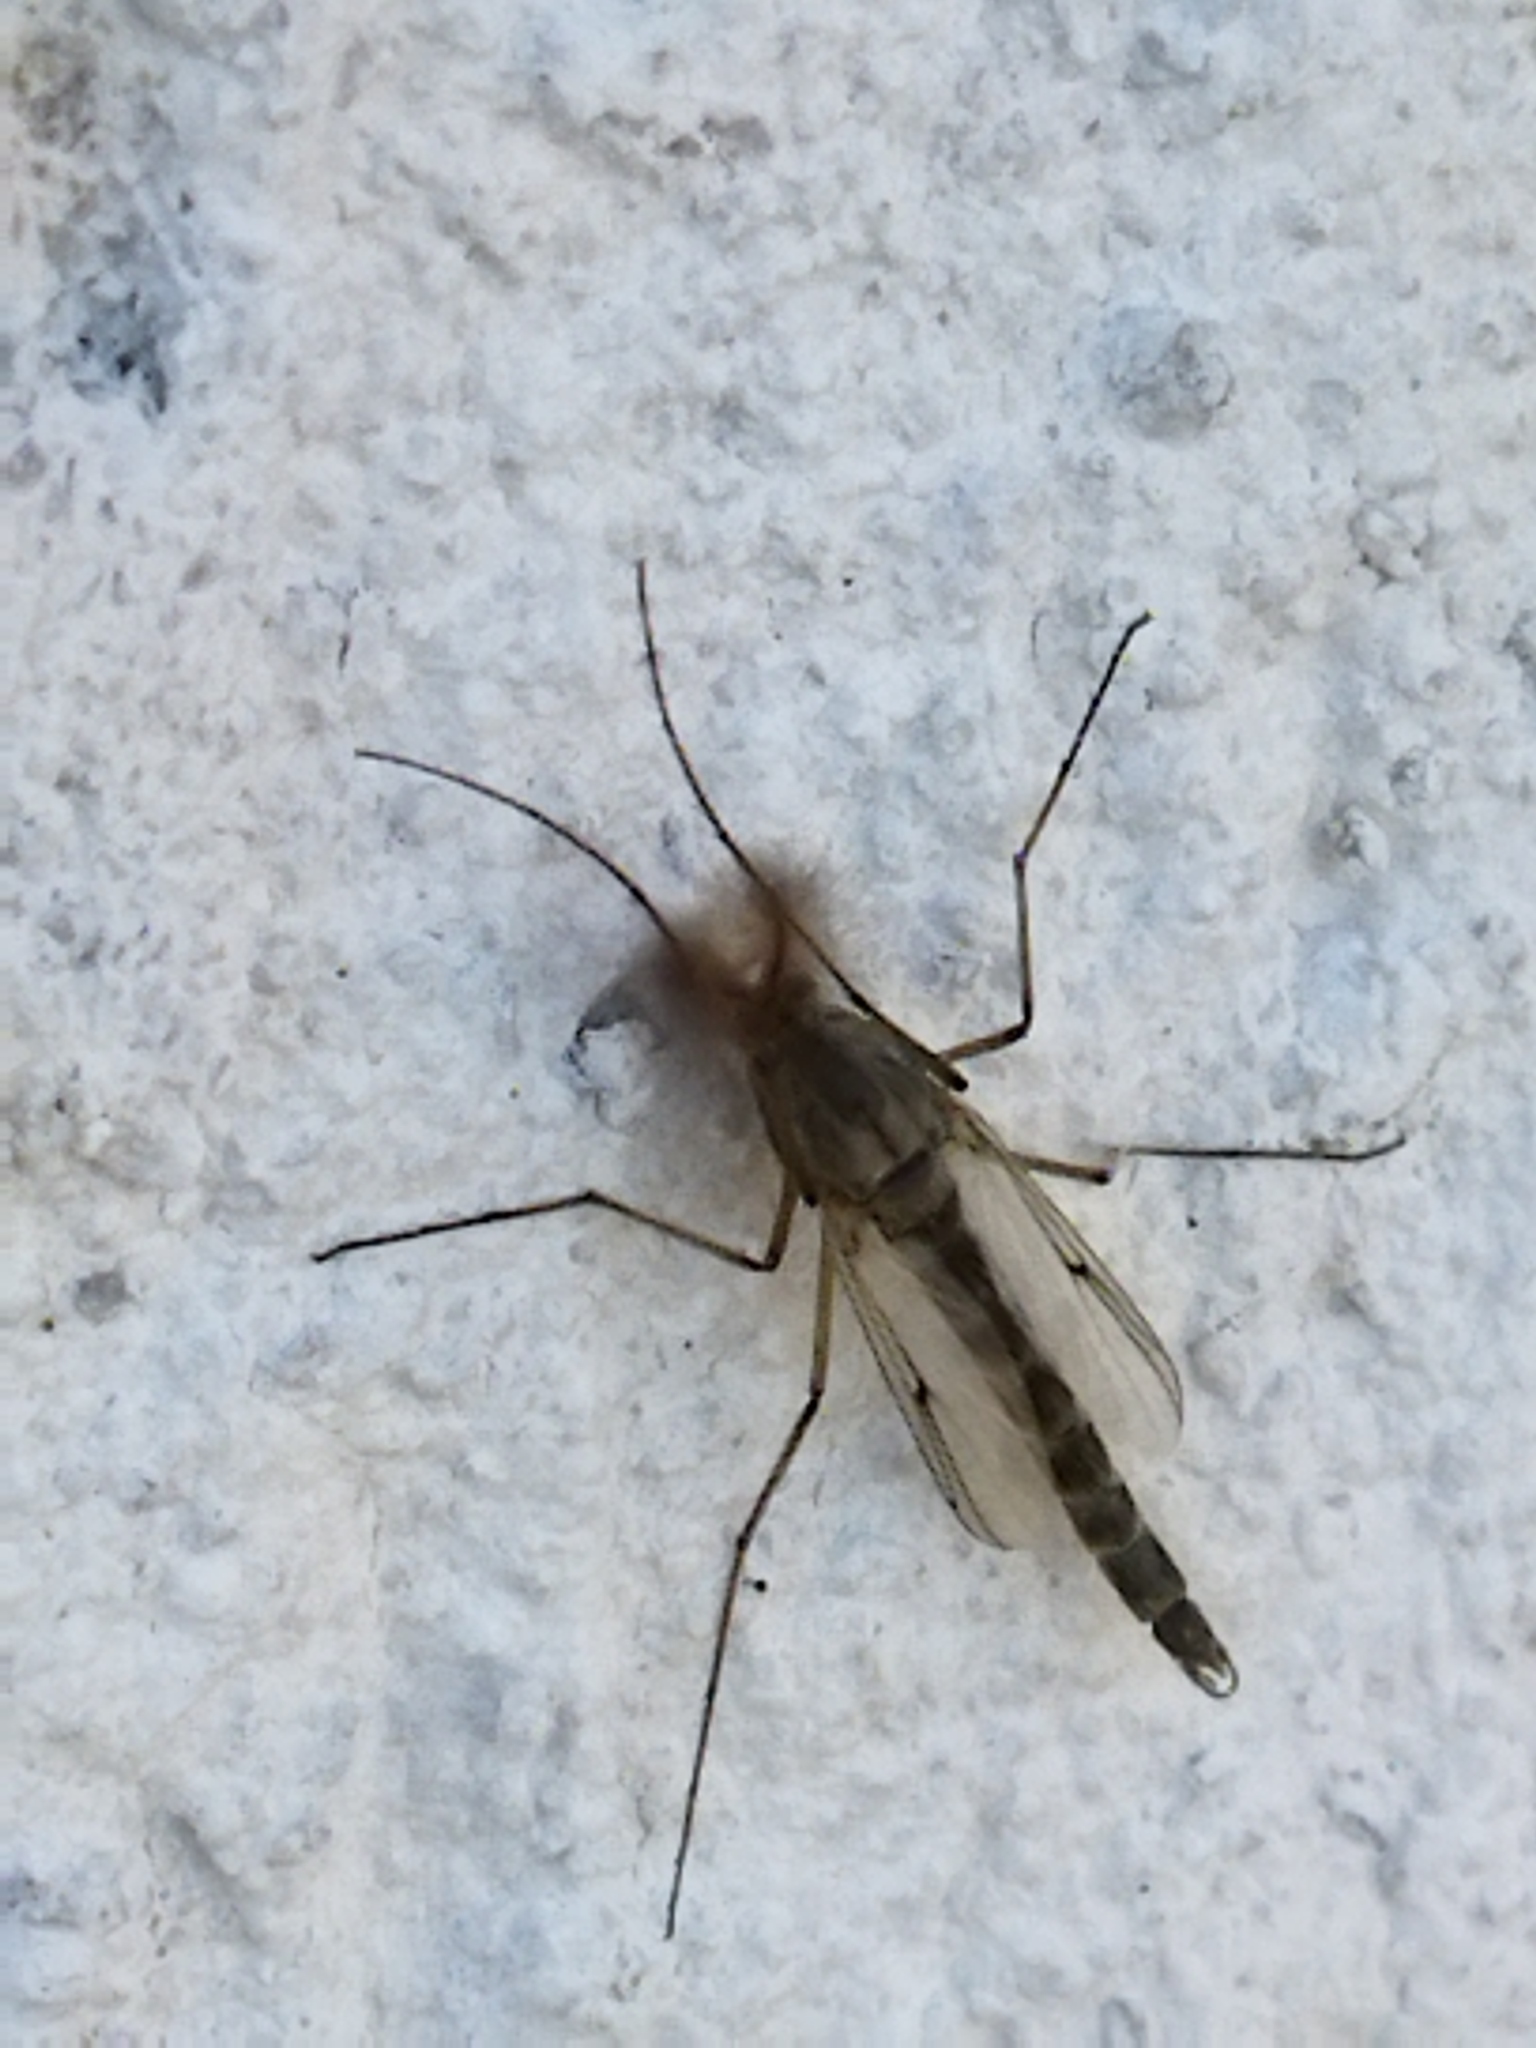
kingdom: Animalia
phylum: Arthropoda
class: Insecta
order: Diptera
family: Chironomidae
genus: Glyptotendipes
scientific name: Glyptotendipes barbipes
